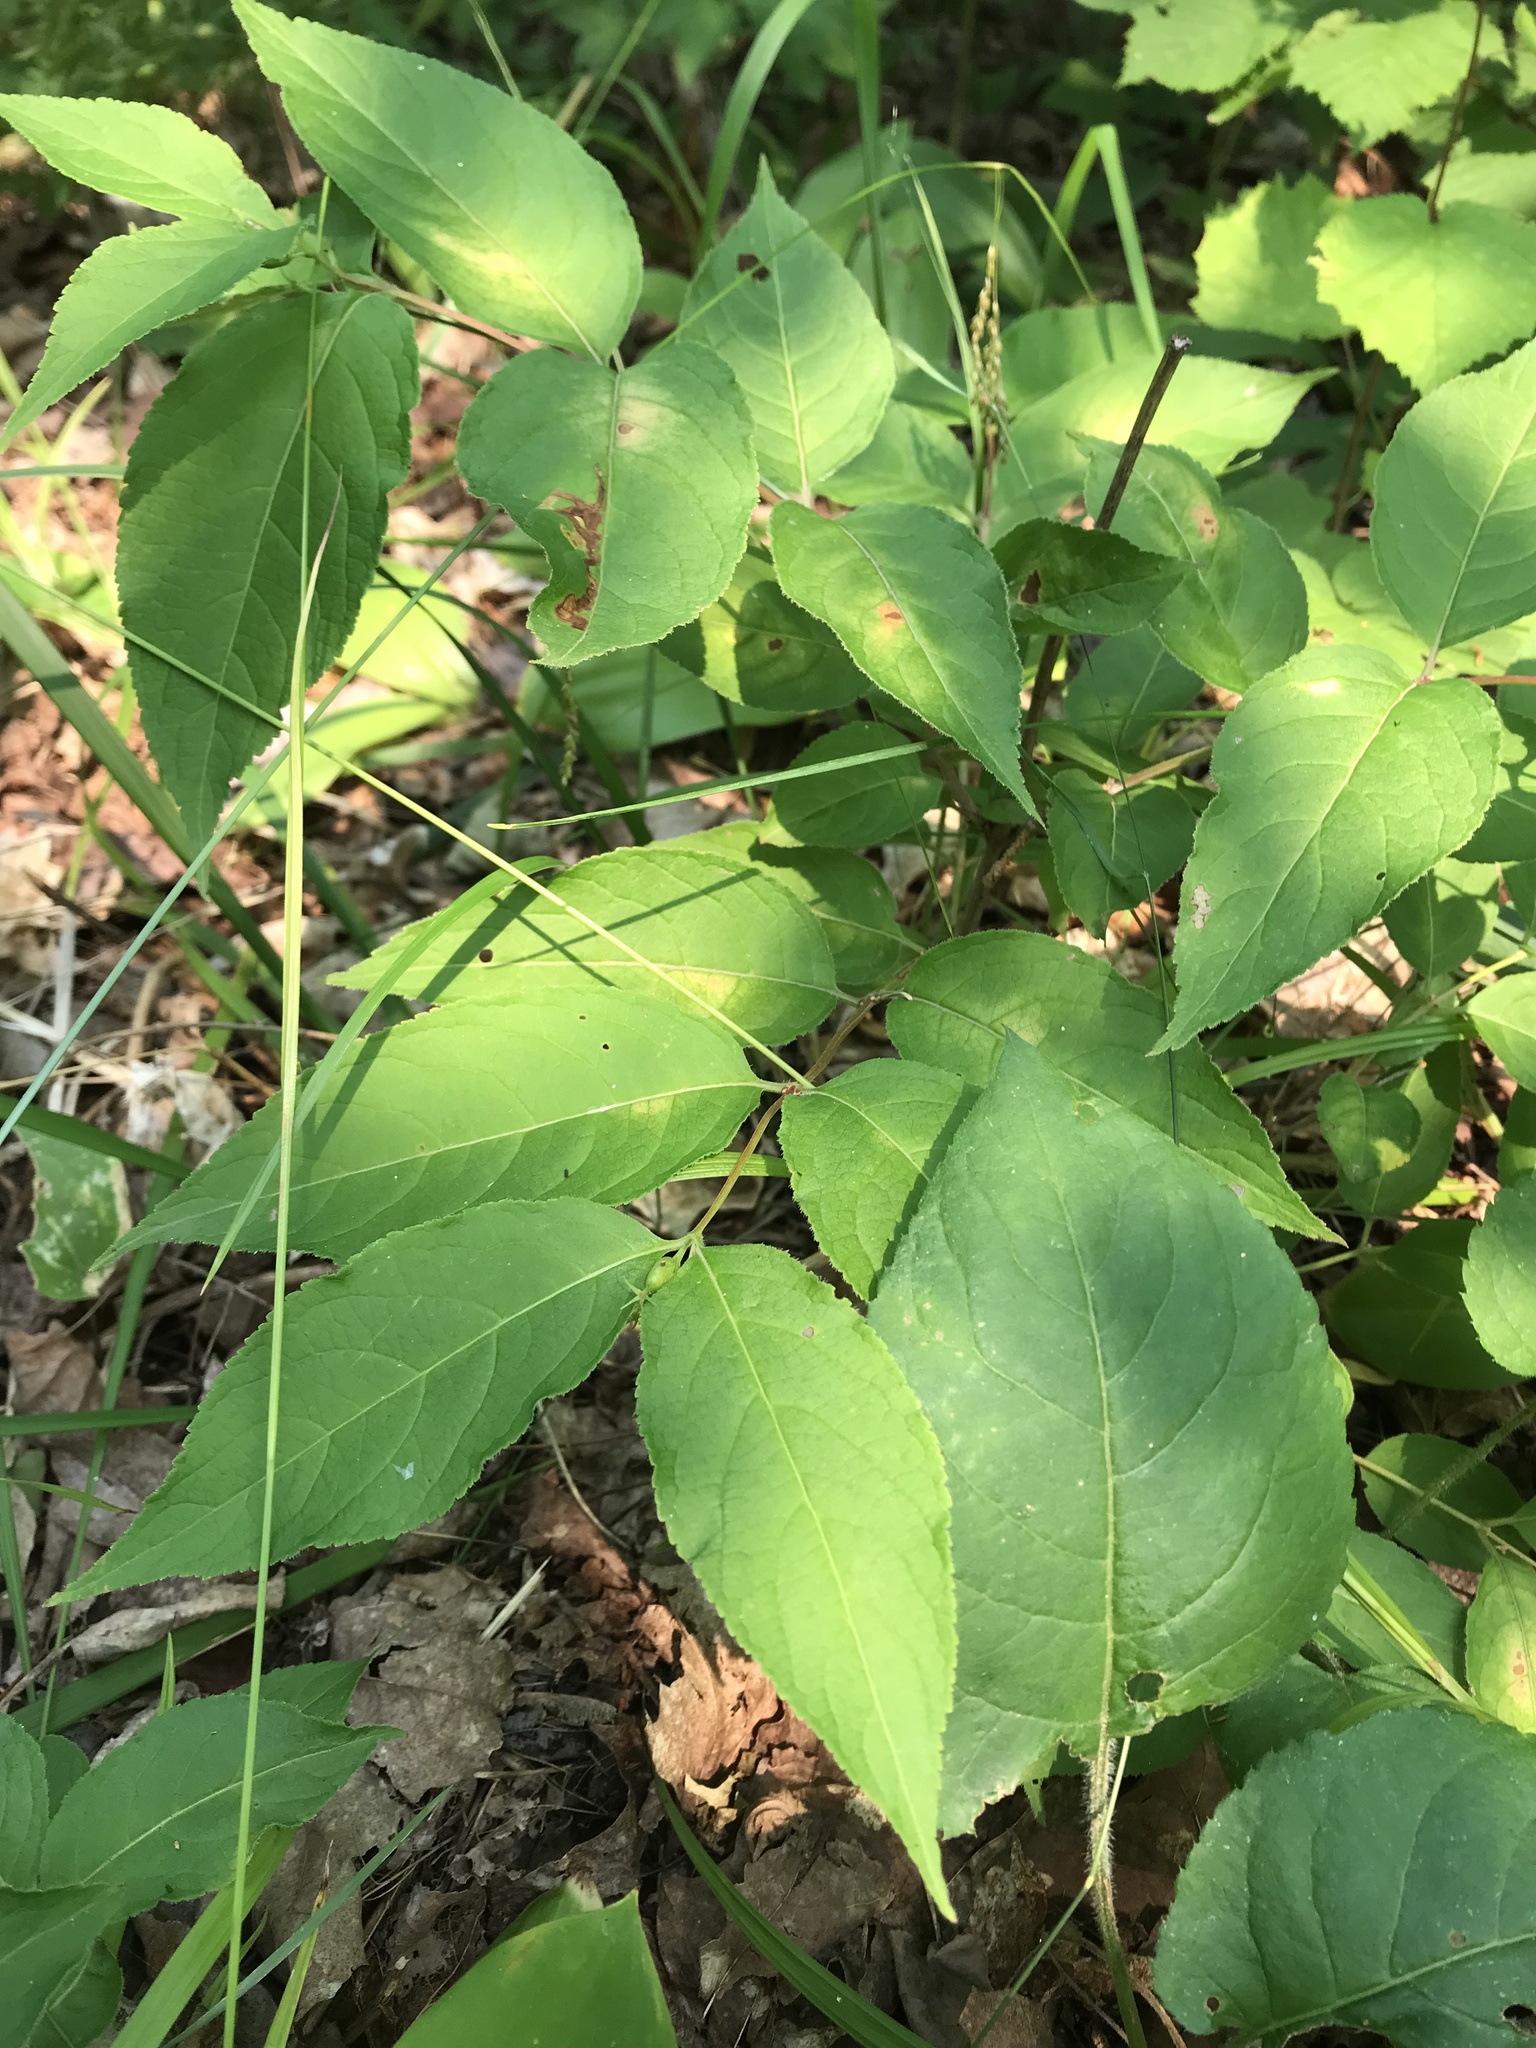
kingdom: Plantae
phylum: Tracheophyta
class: Magnoliopsida
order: Dipsacales
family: Caprifoliaceae
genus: Diervilla
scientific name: Diervilla lonicera
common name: Bush-honeysuckle
